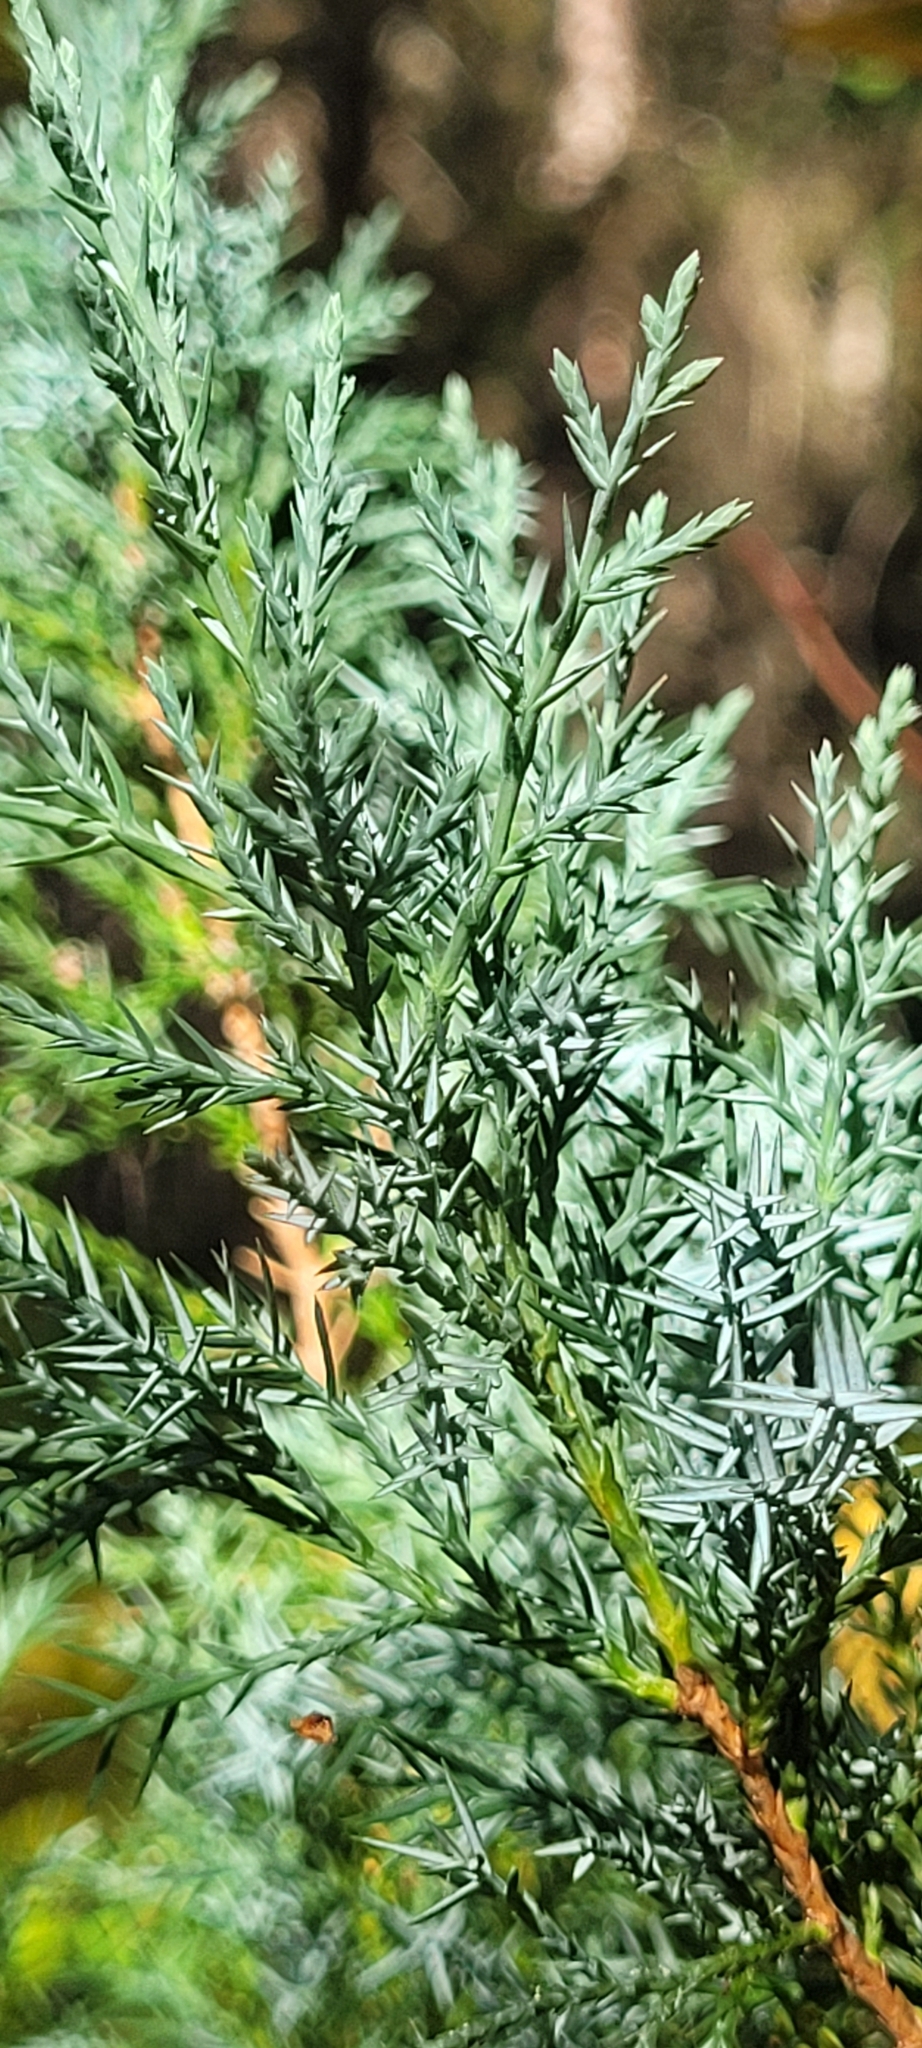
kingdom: Plantae
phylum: Tracheophyta
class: Pinopsida
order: Pinales
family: Cupressaceae
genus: Juniperus
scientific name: Juniperus scopulorum
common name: Rocky mountain juniper
